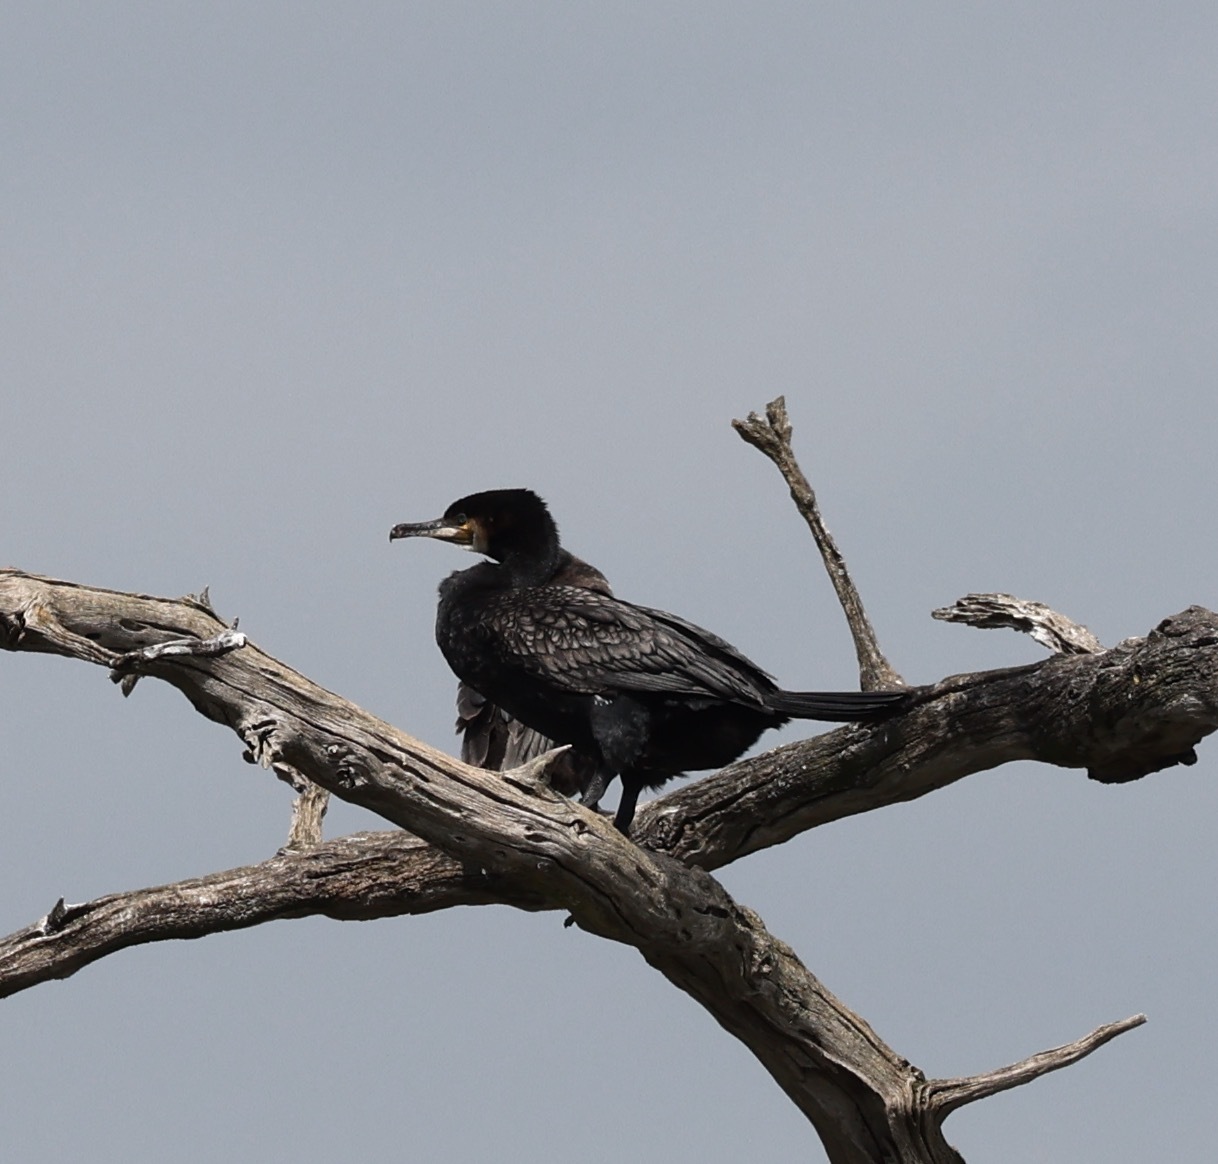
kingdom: Animalia
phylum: Chordata
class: Aves
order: Suliformes
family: Phalacrocoracidae
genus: Phalacrocorax
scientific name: Phalacrocorax carbo
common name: Great cormorant
